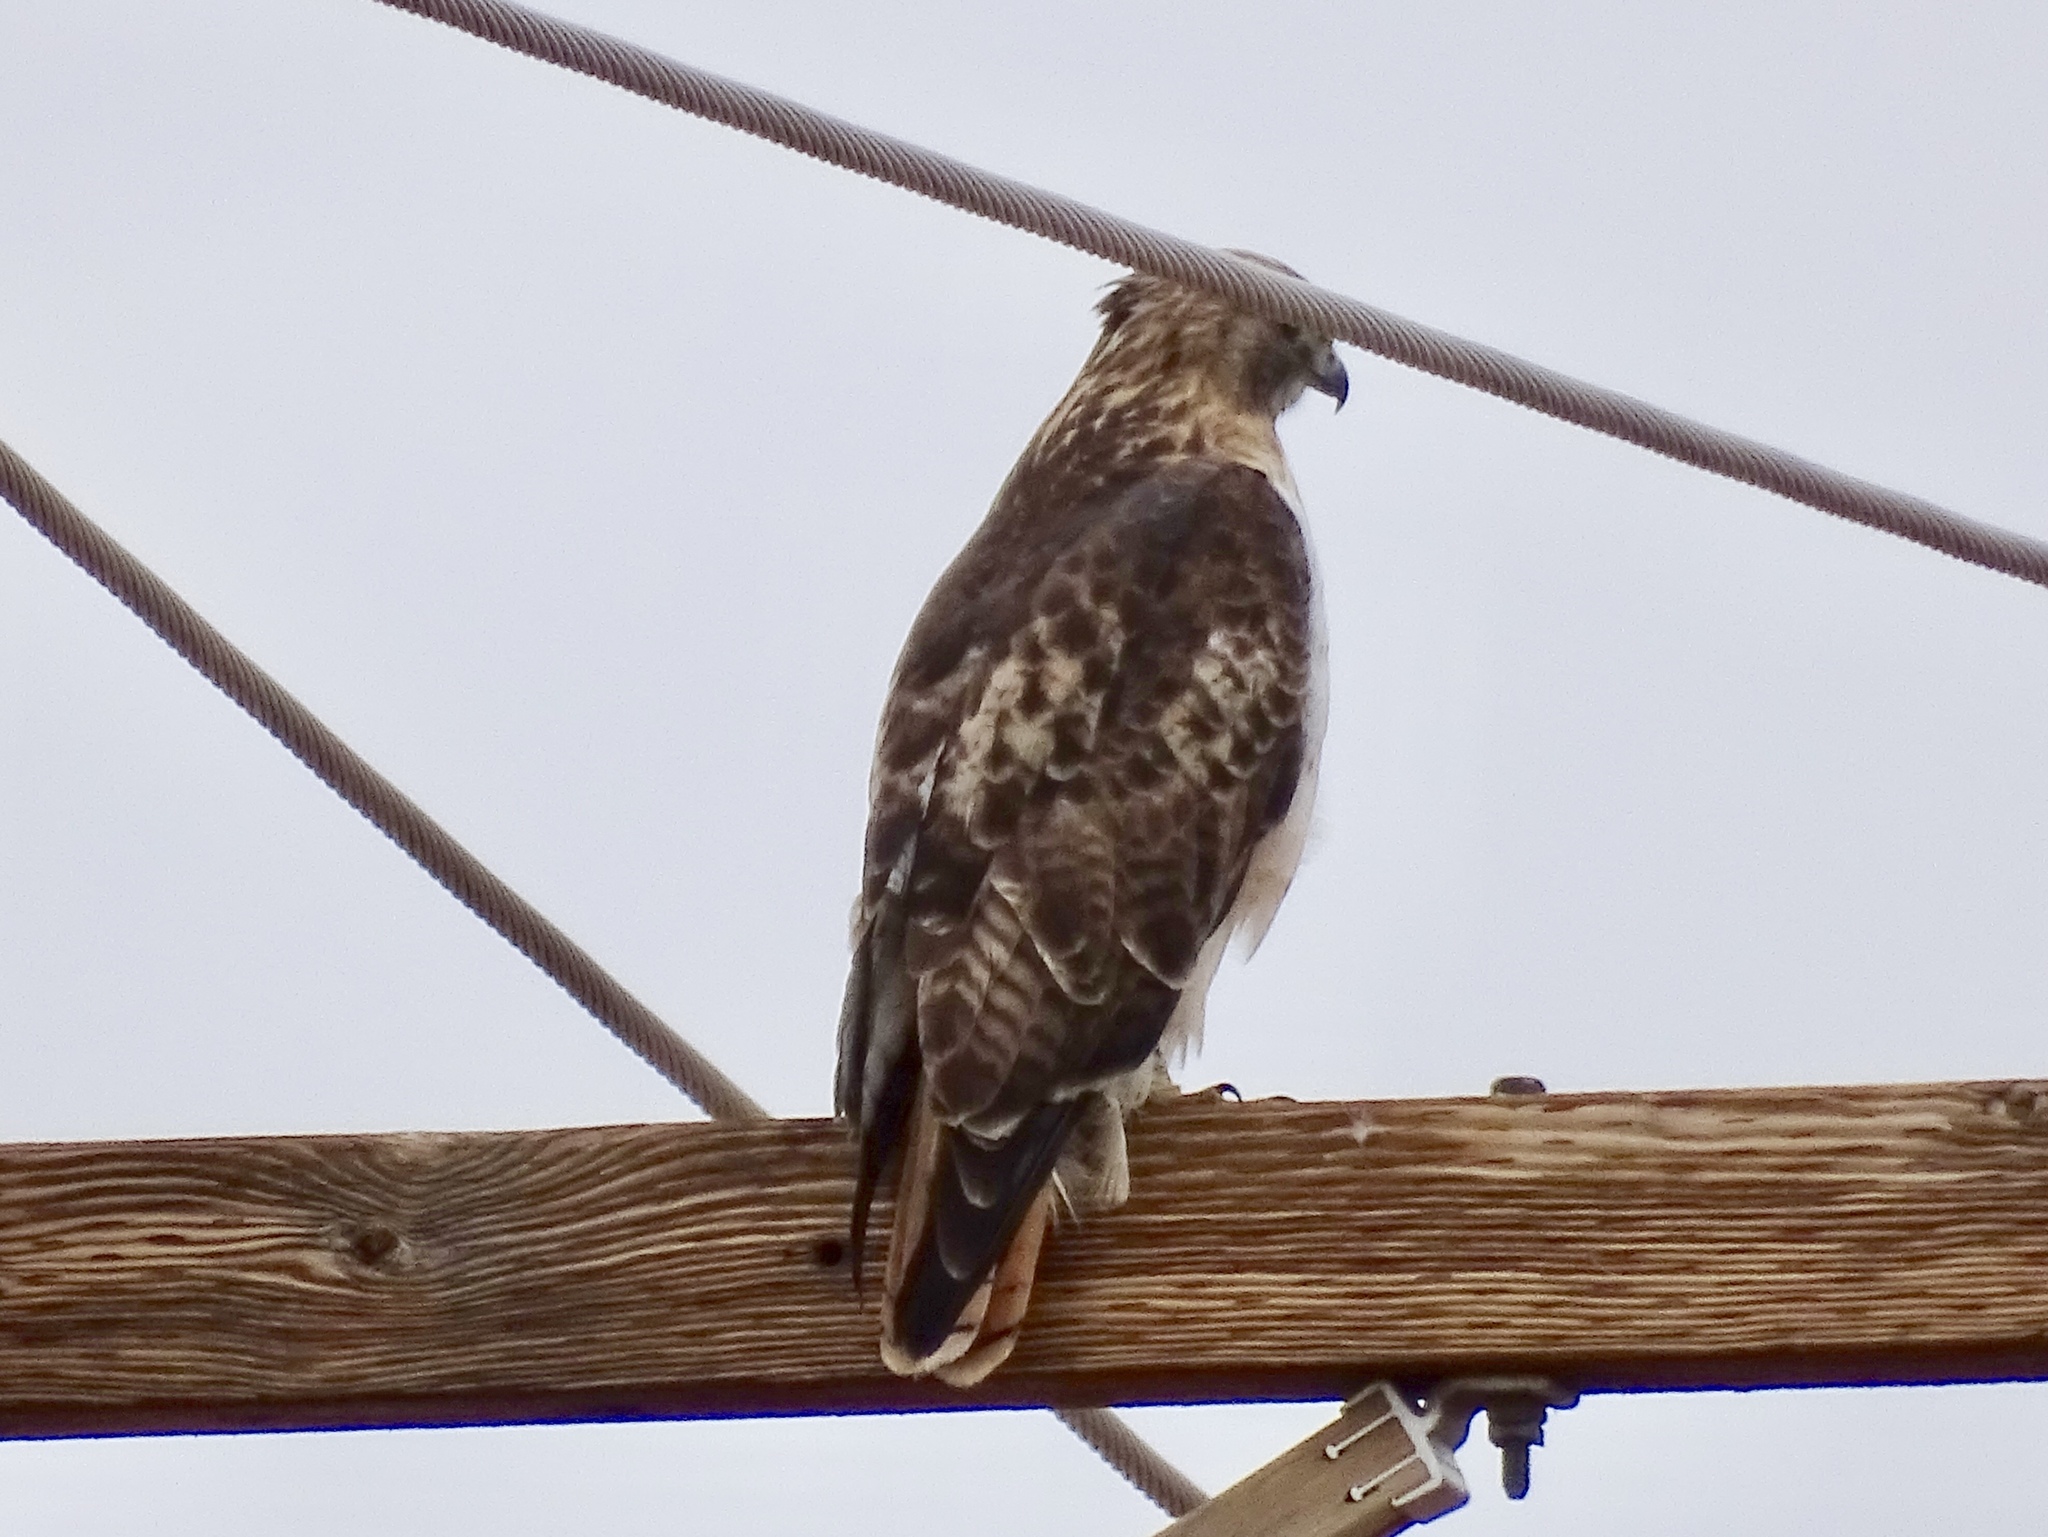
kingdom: Animalia
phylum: Chordata
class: Aves
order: Accipitriformes
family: Accipitridae
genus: Buteo
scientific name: Buteo jamaicensis
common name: Red-tailed hawk
